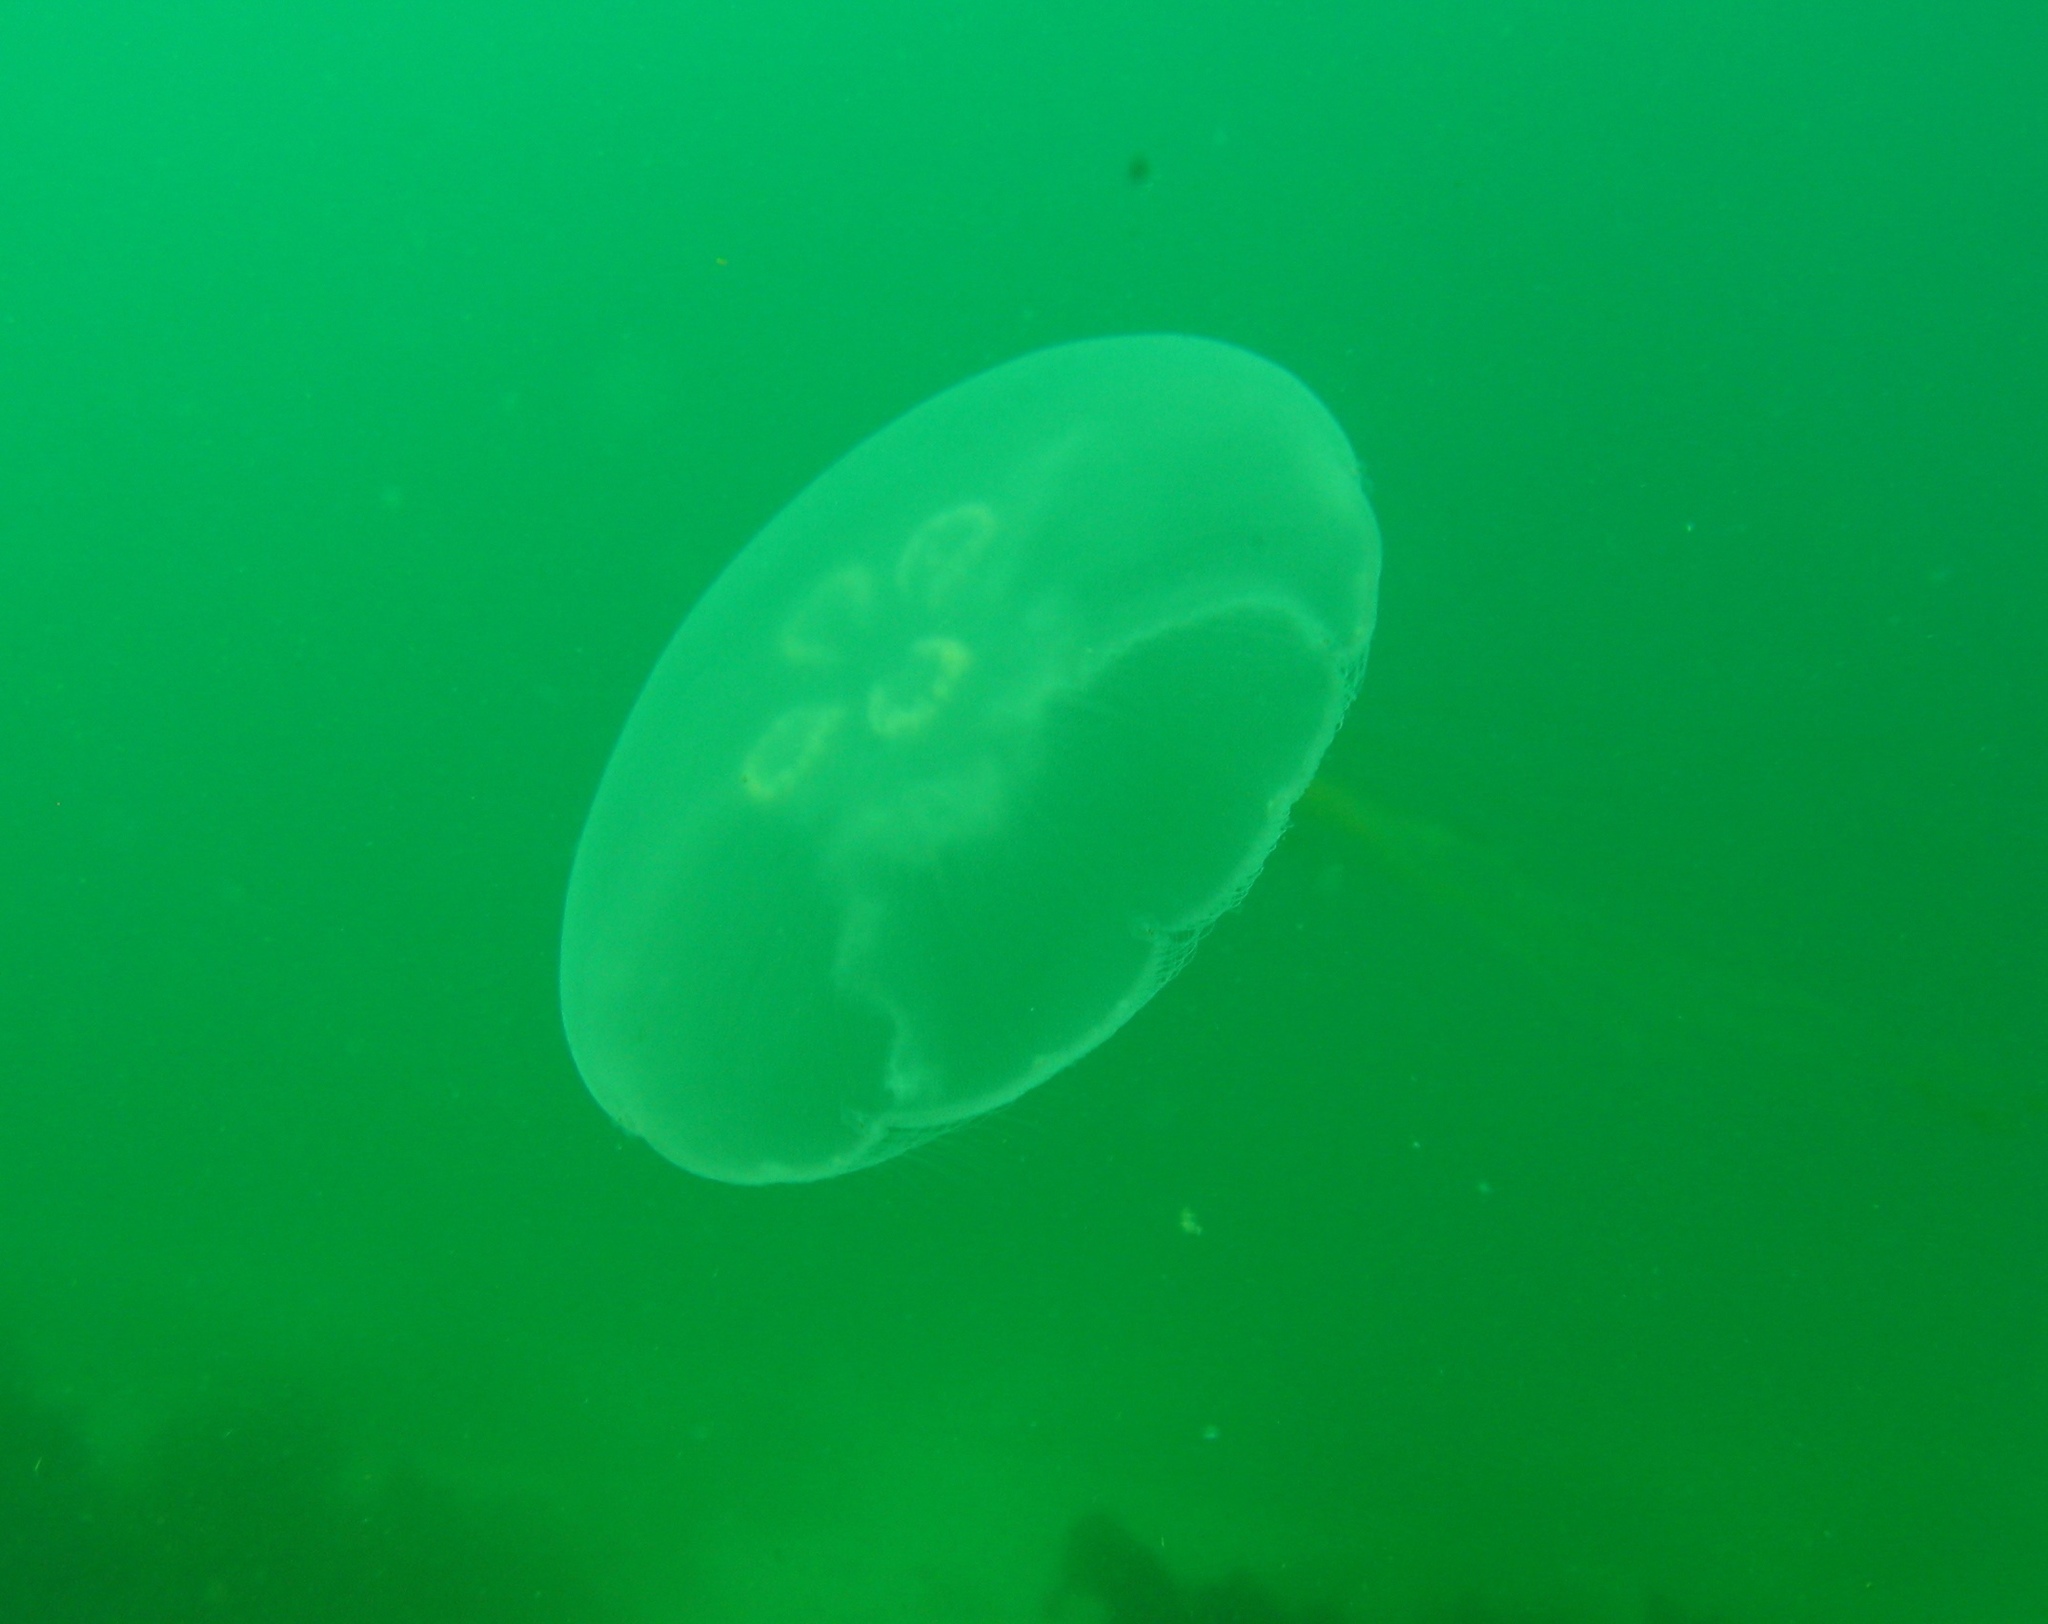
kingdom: Animalia
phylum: Cnidaria
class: Scyphozoa
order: Semaeostomeae
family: Ulmaridae
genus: Aurelia
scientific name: Aurelia labiata
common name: Pacific moon jelly
